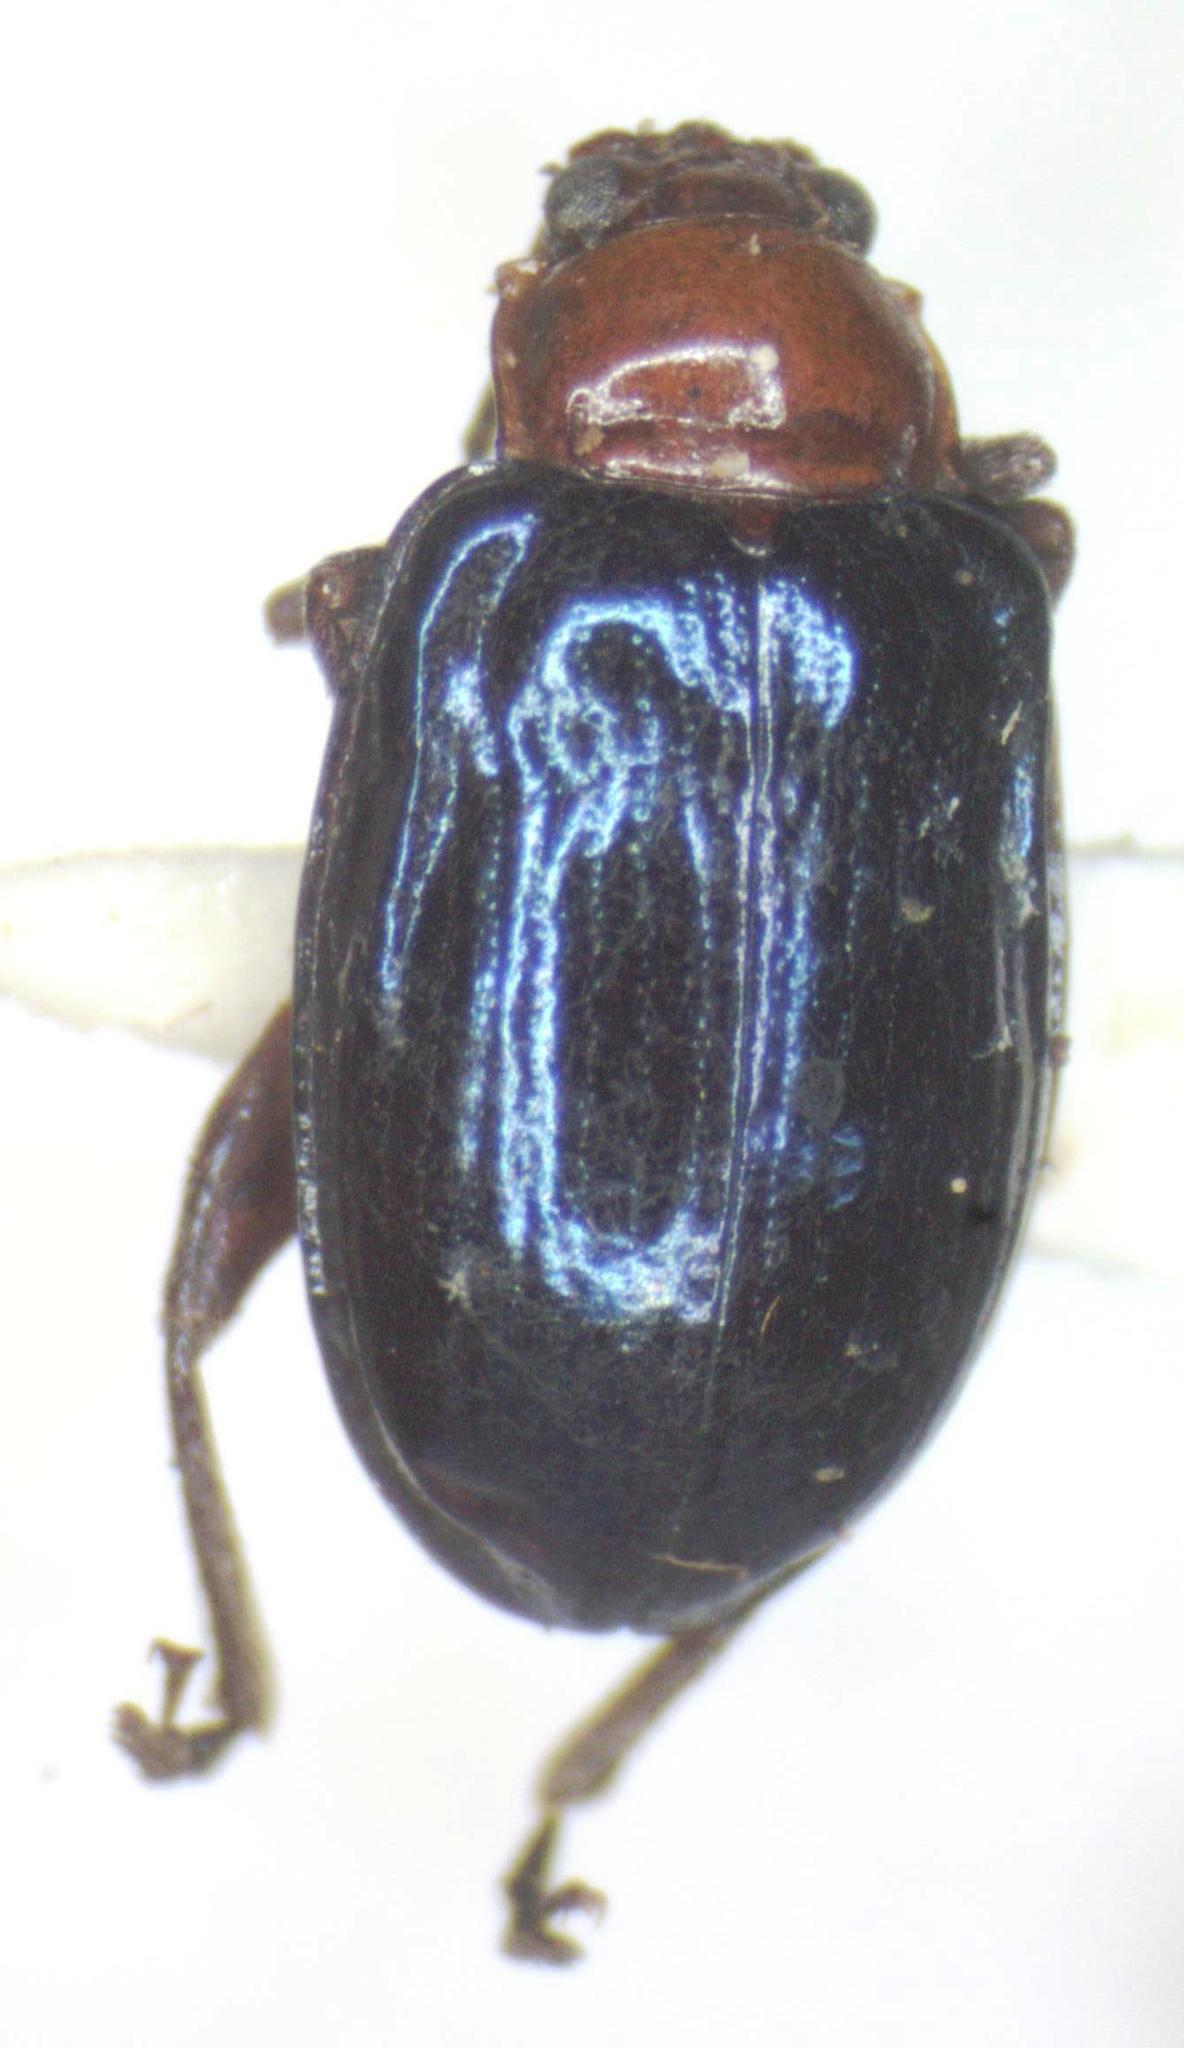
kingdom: Animalia
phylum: Arthropoda
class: Insecta
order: Coleoptera
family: Chrysomelidae
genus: Diphaulaca
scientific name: Diphaulaca aulica
